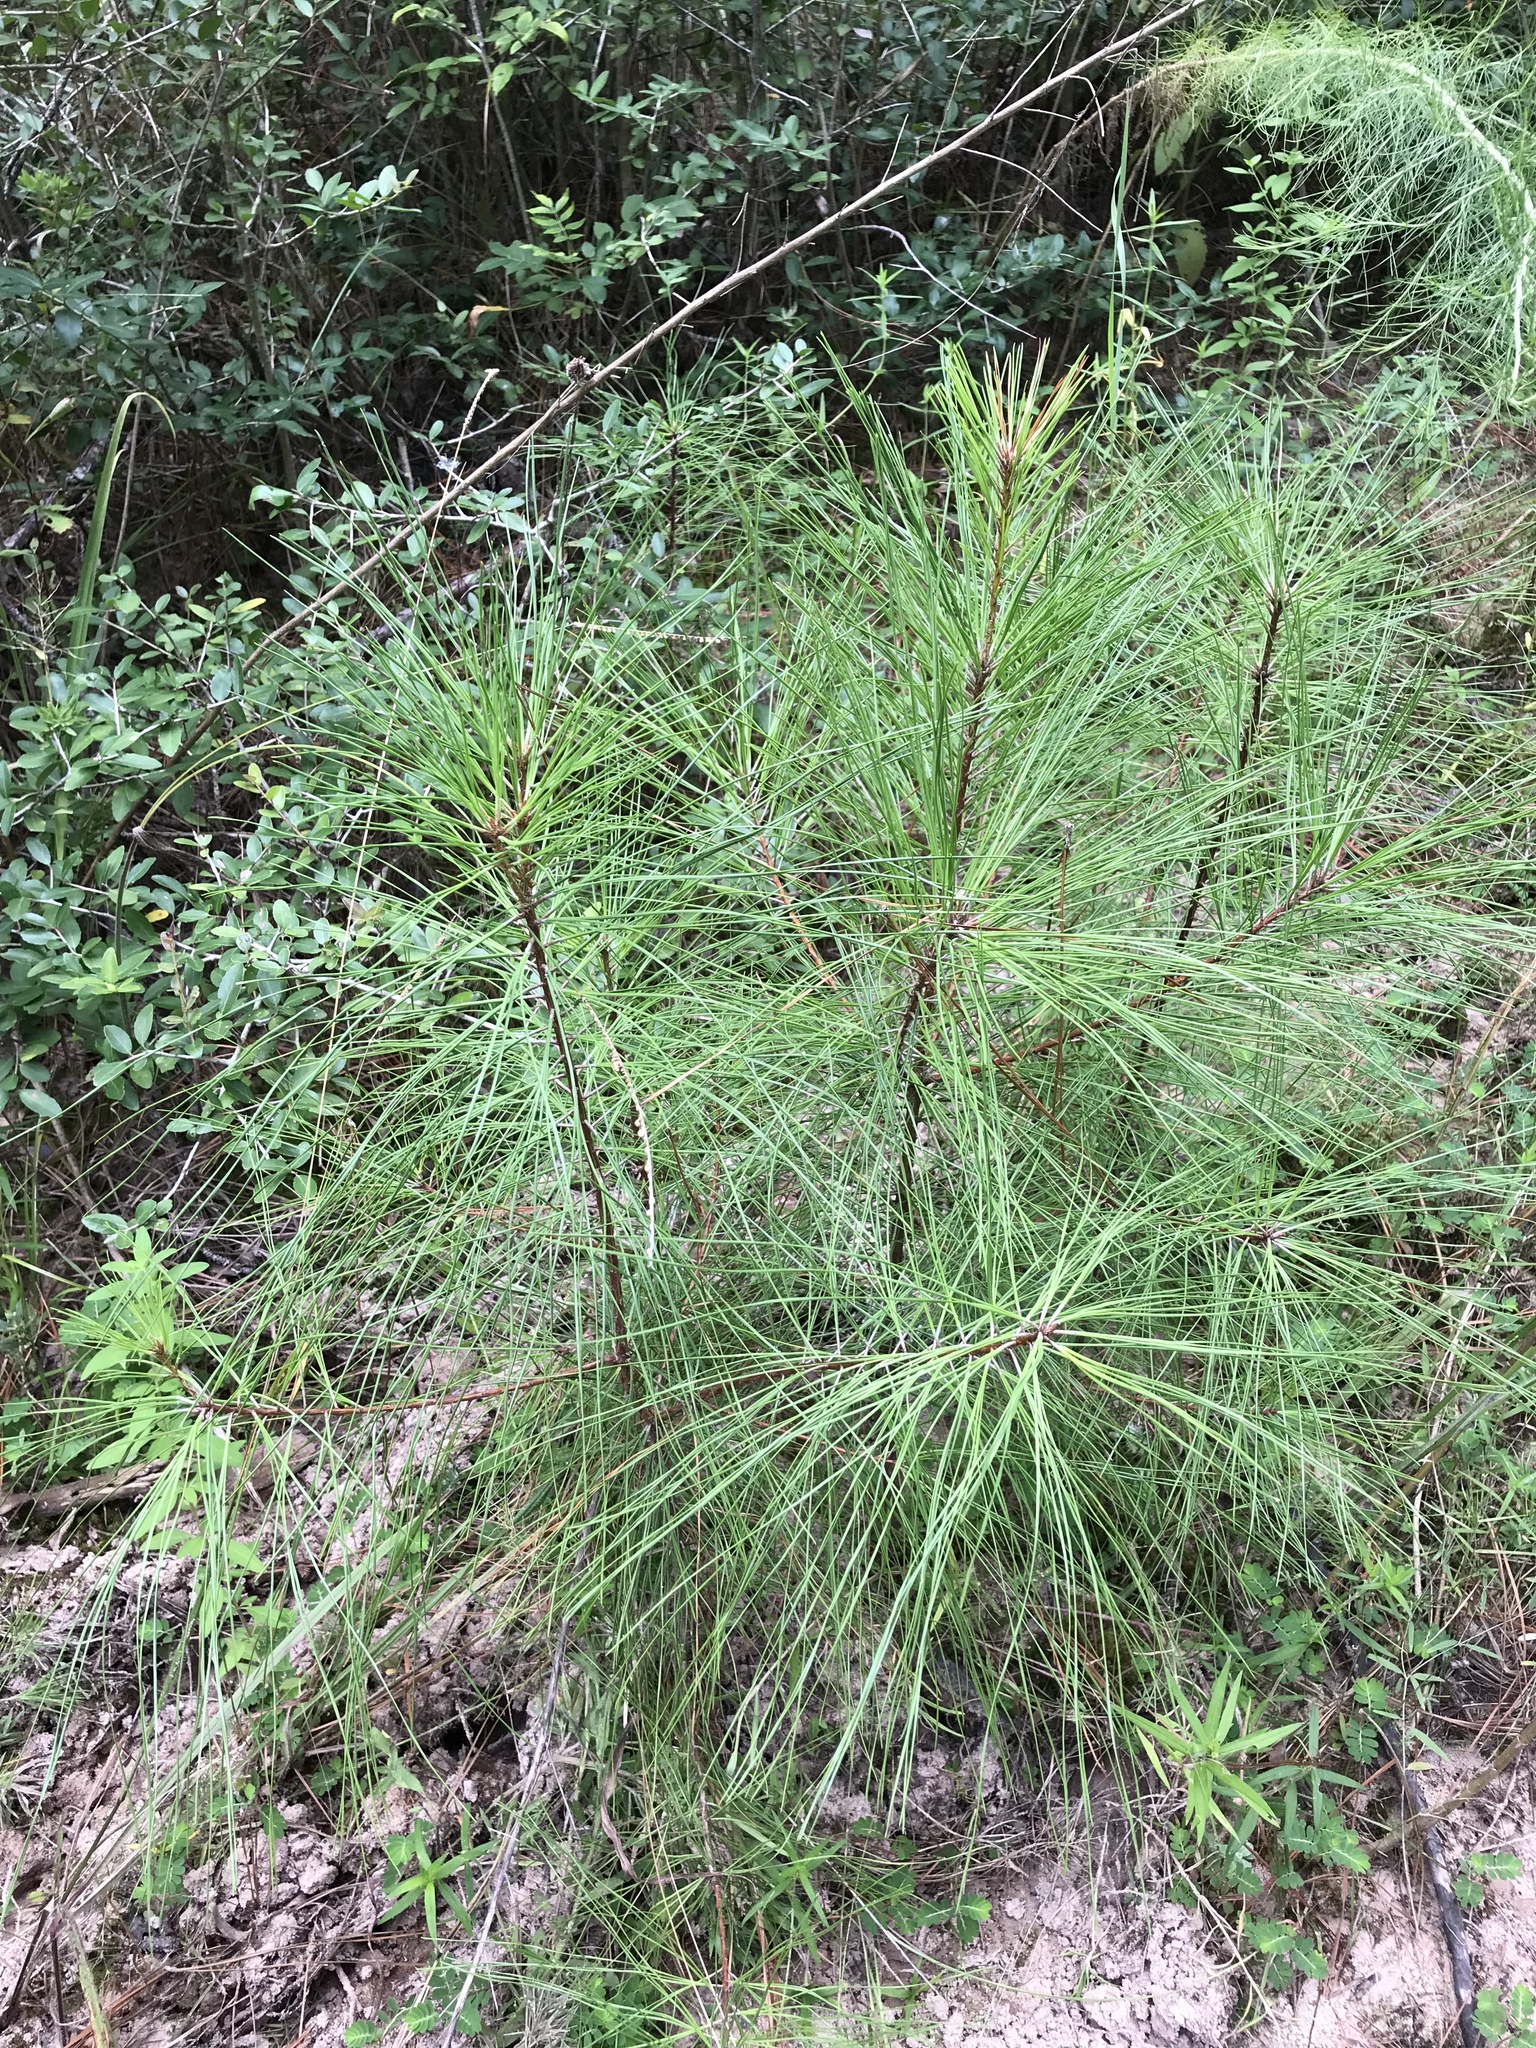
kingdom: Plantae
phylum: Tracheophyta
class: Pinopsida
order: Pinales
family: Pinaceae
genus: Pinus
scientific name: Pinus taeda
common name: Loblolly pine
